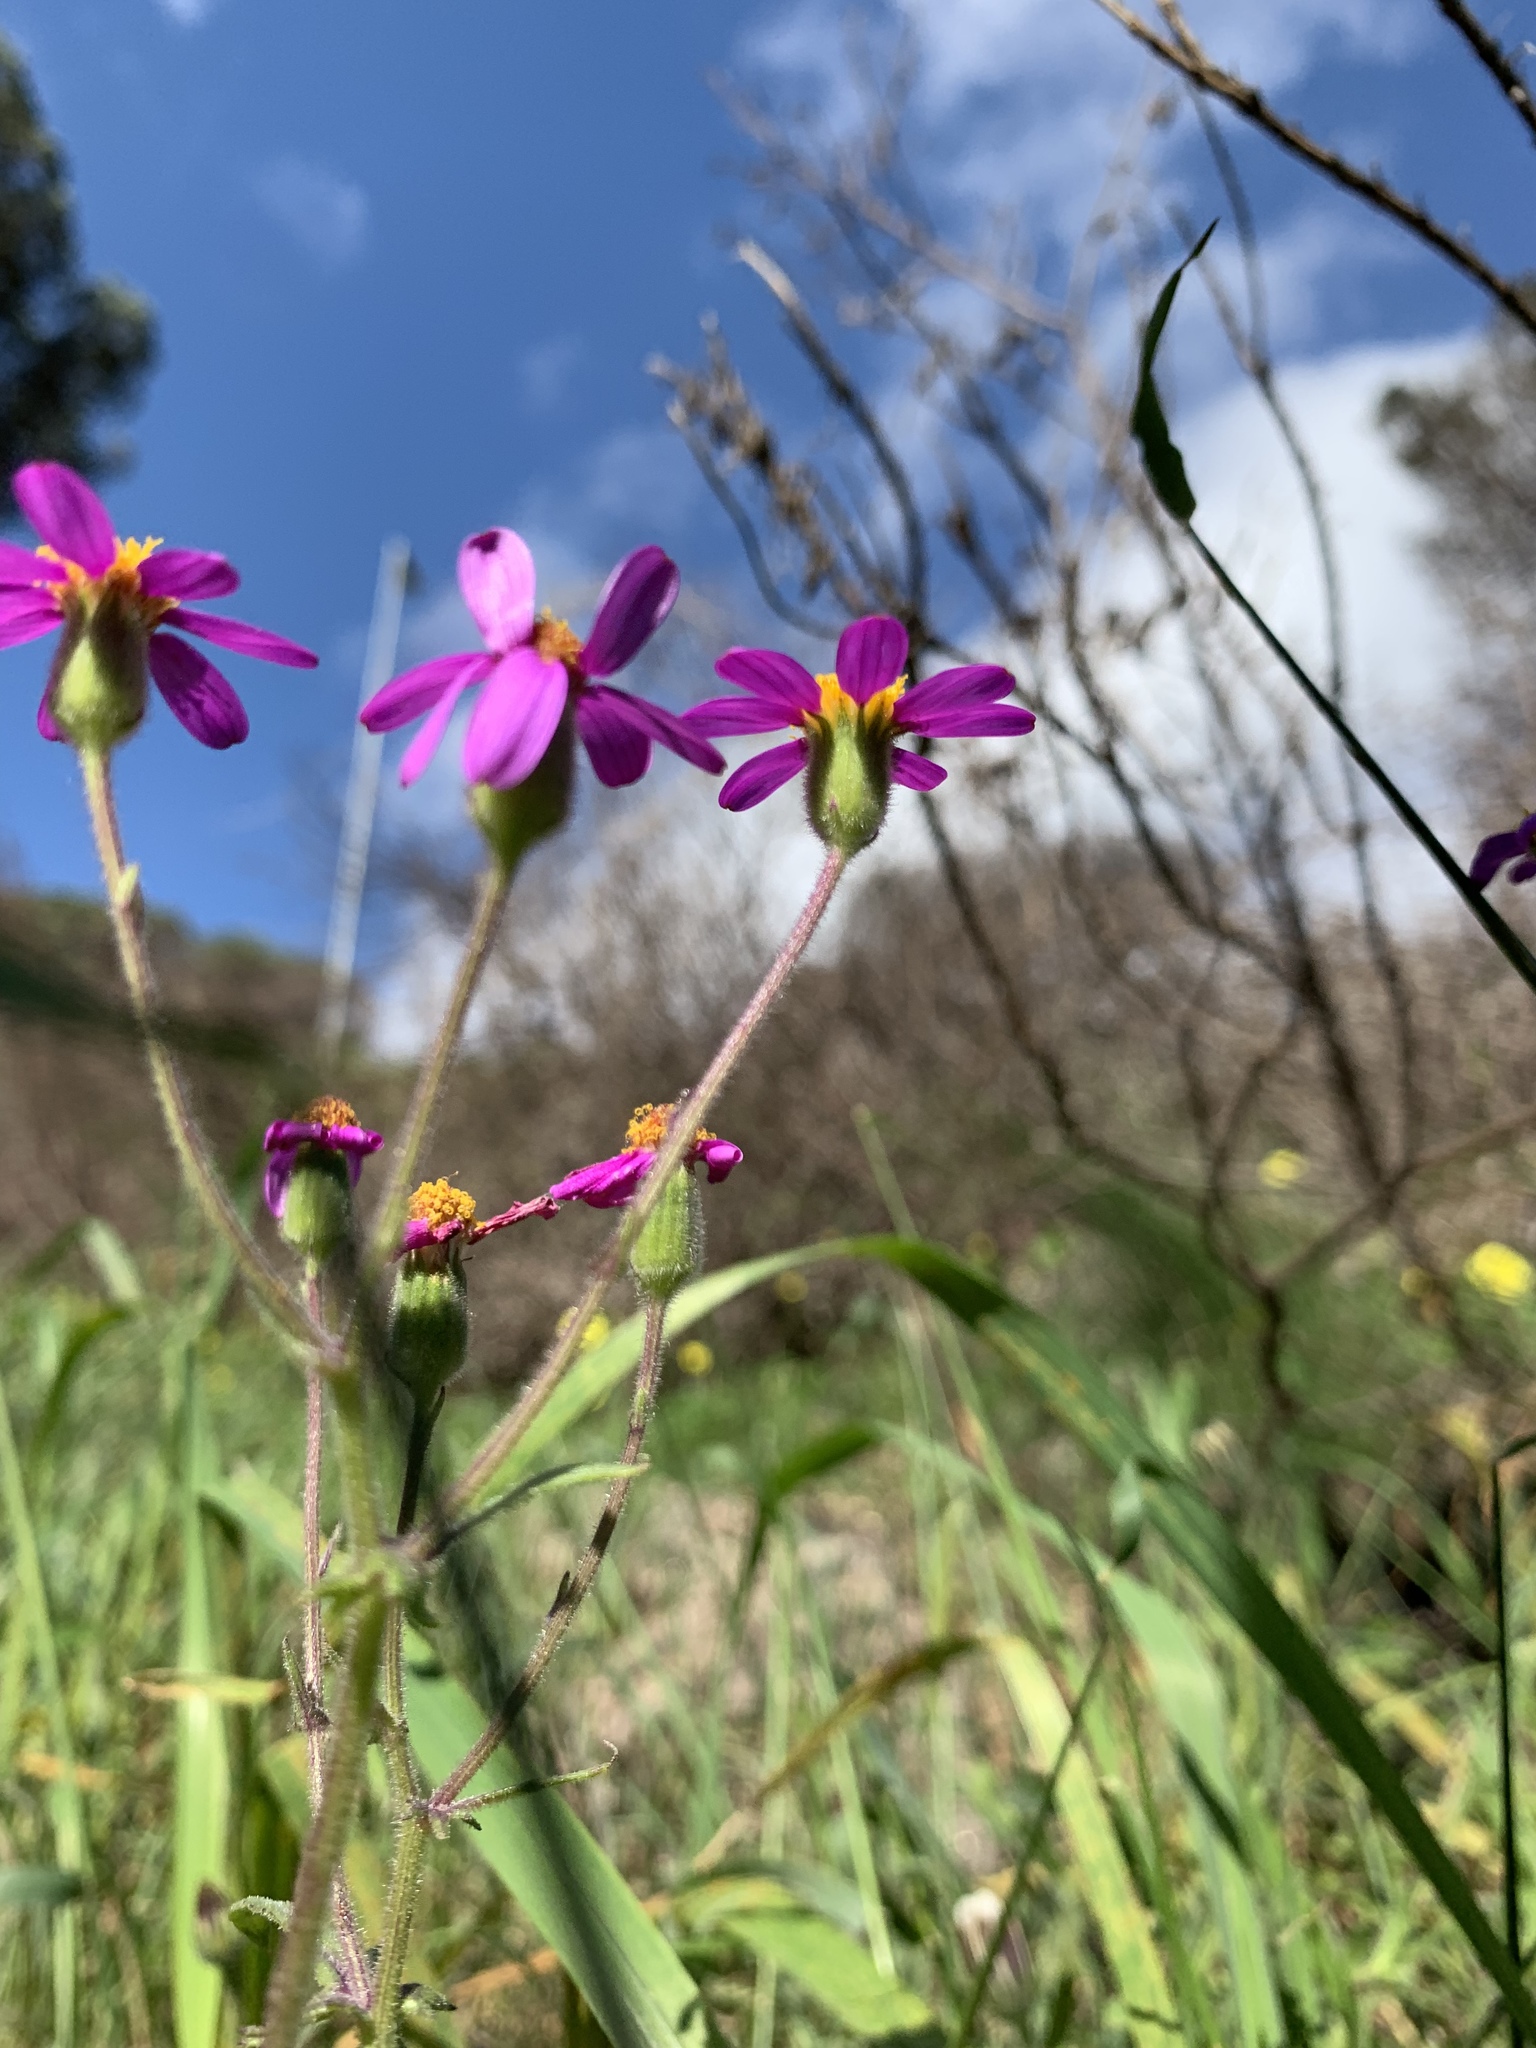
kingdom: Plantae
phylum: Tracheophyta
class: Magnoliopsida
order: Asterales
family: Asteraceae
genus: Senecio
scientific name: Senecio arenarius
